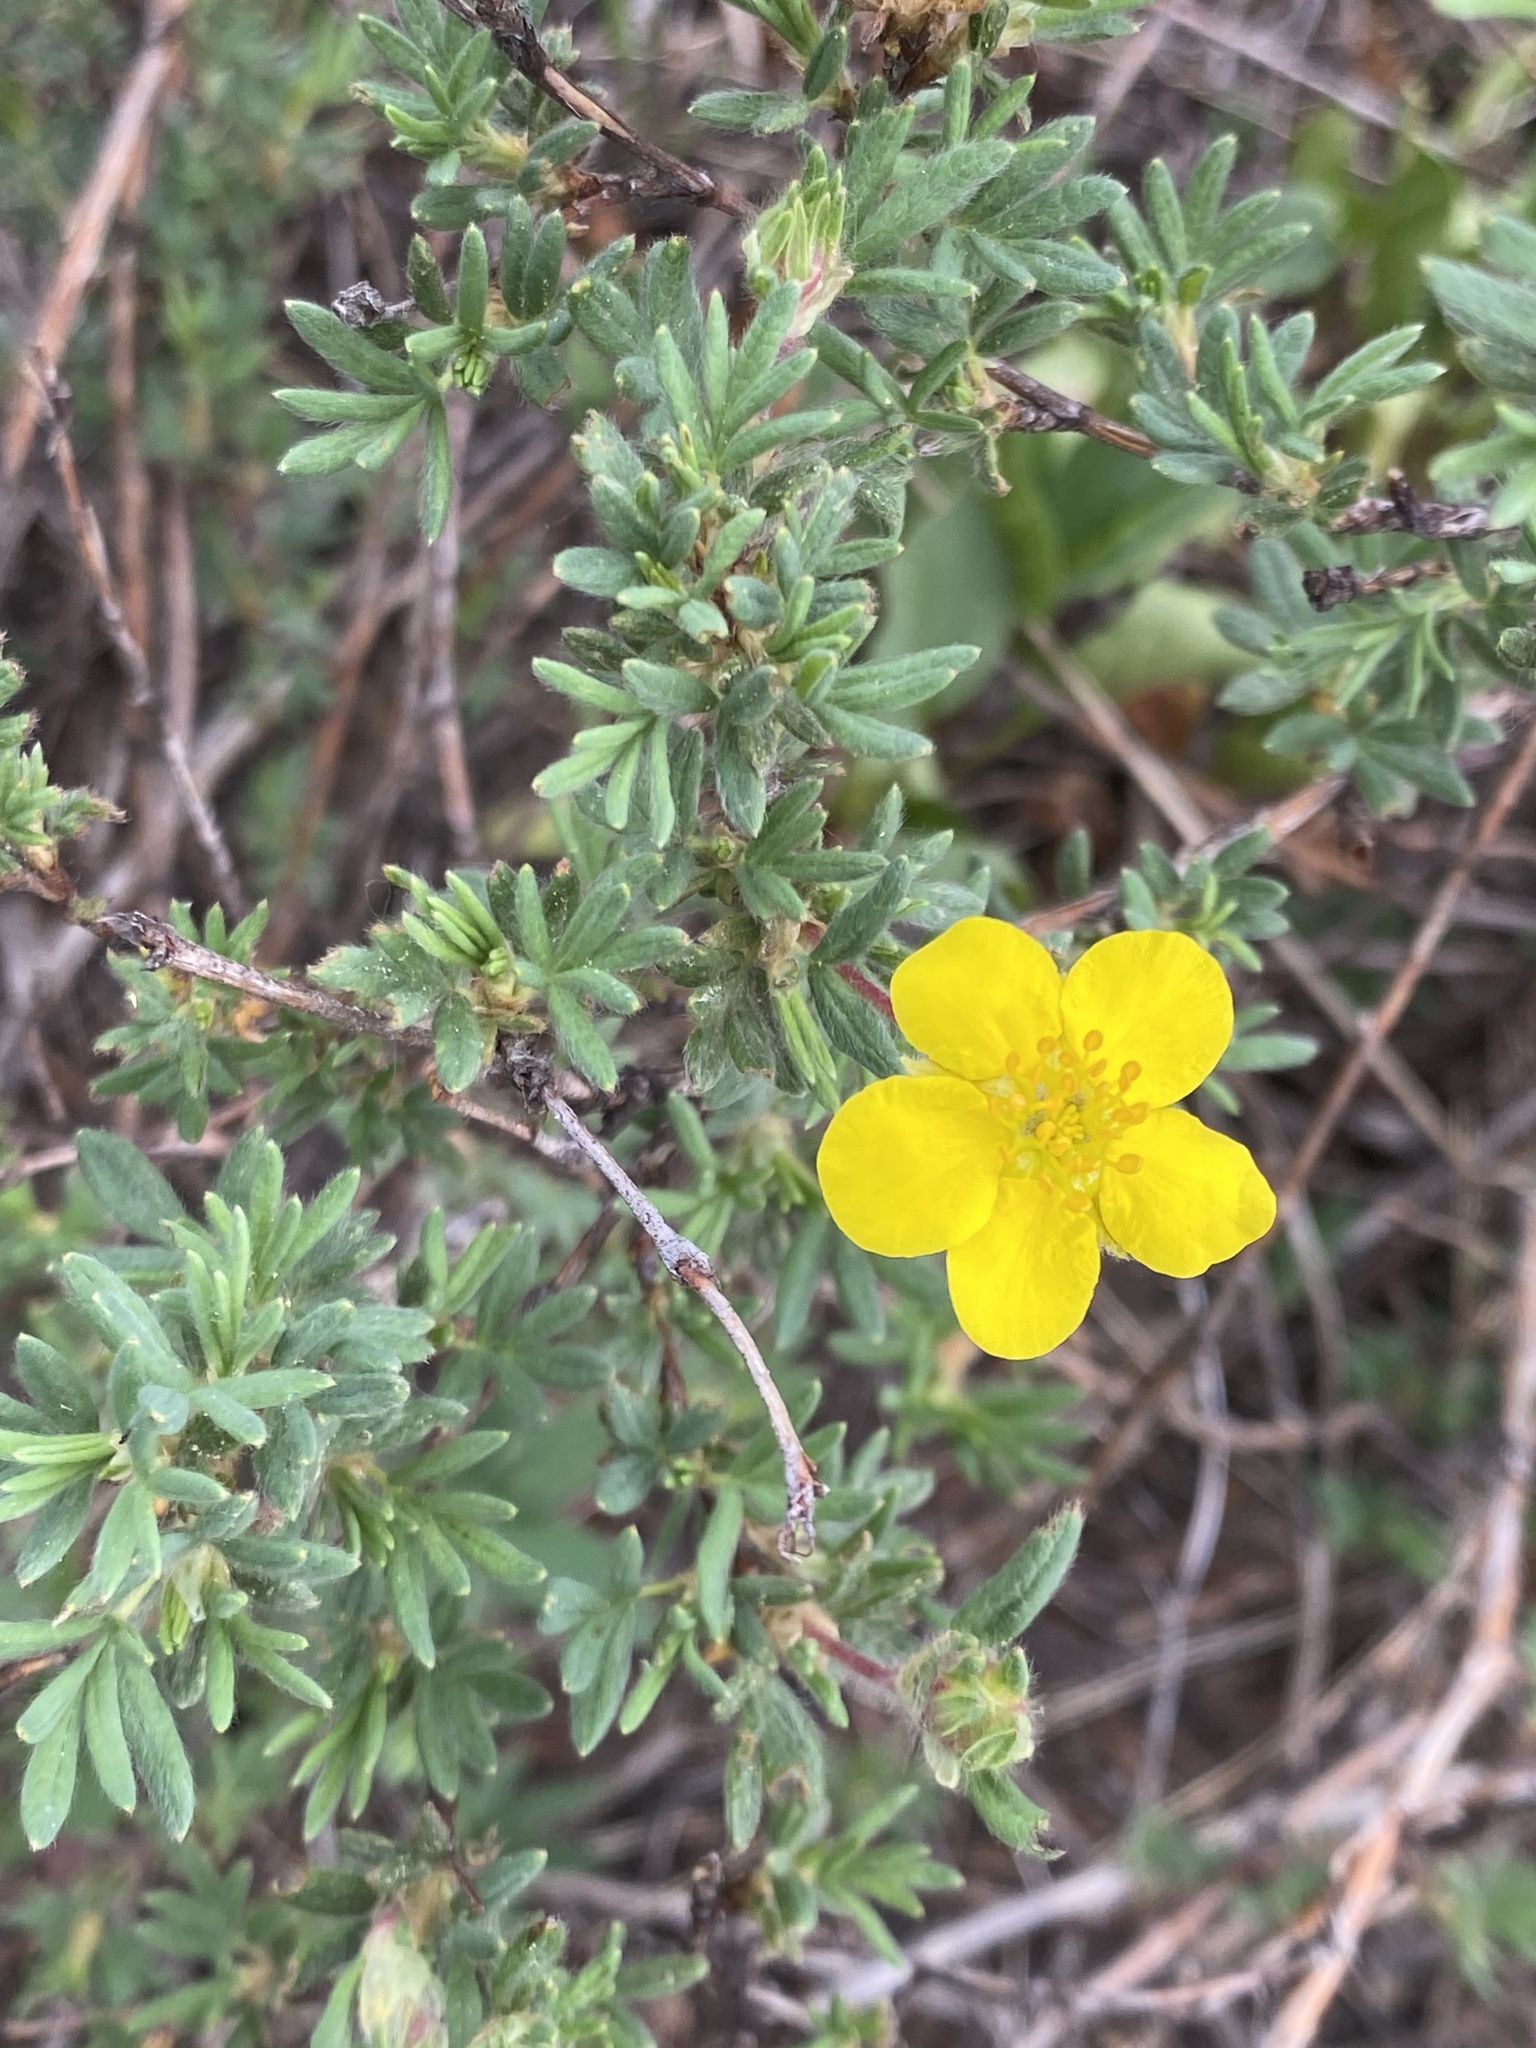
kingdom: Plantae
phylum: Tracheophyta
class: Magnoliopsida
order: Rosales
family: Rosaceae
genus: Dasiphora
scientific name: Dasiphora fruticosa
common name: Shrubby cinquefoil
